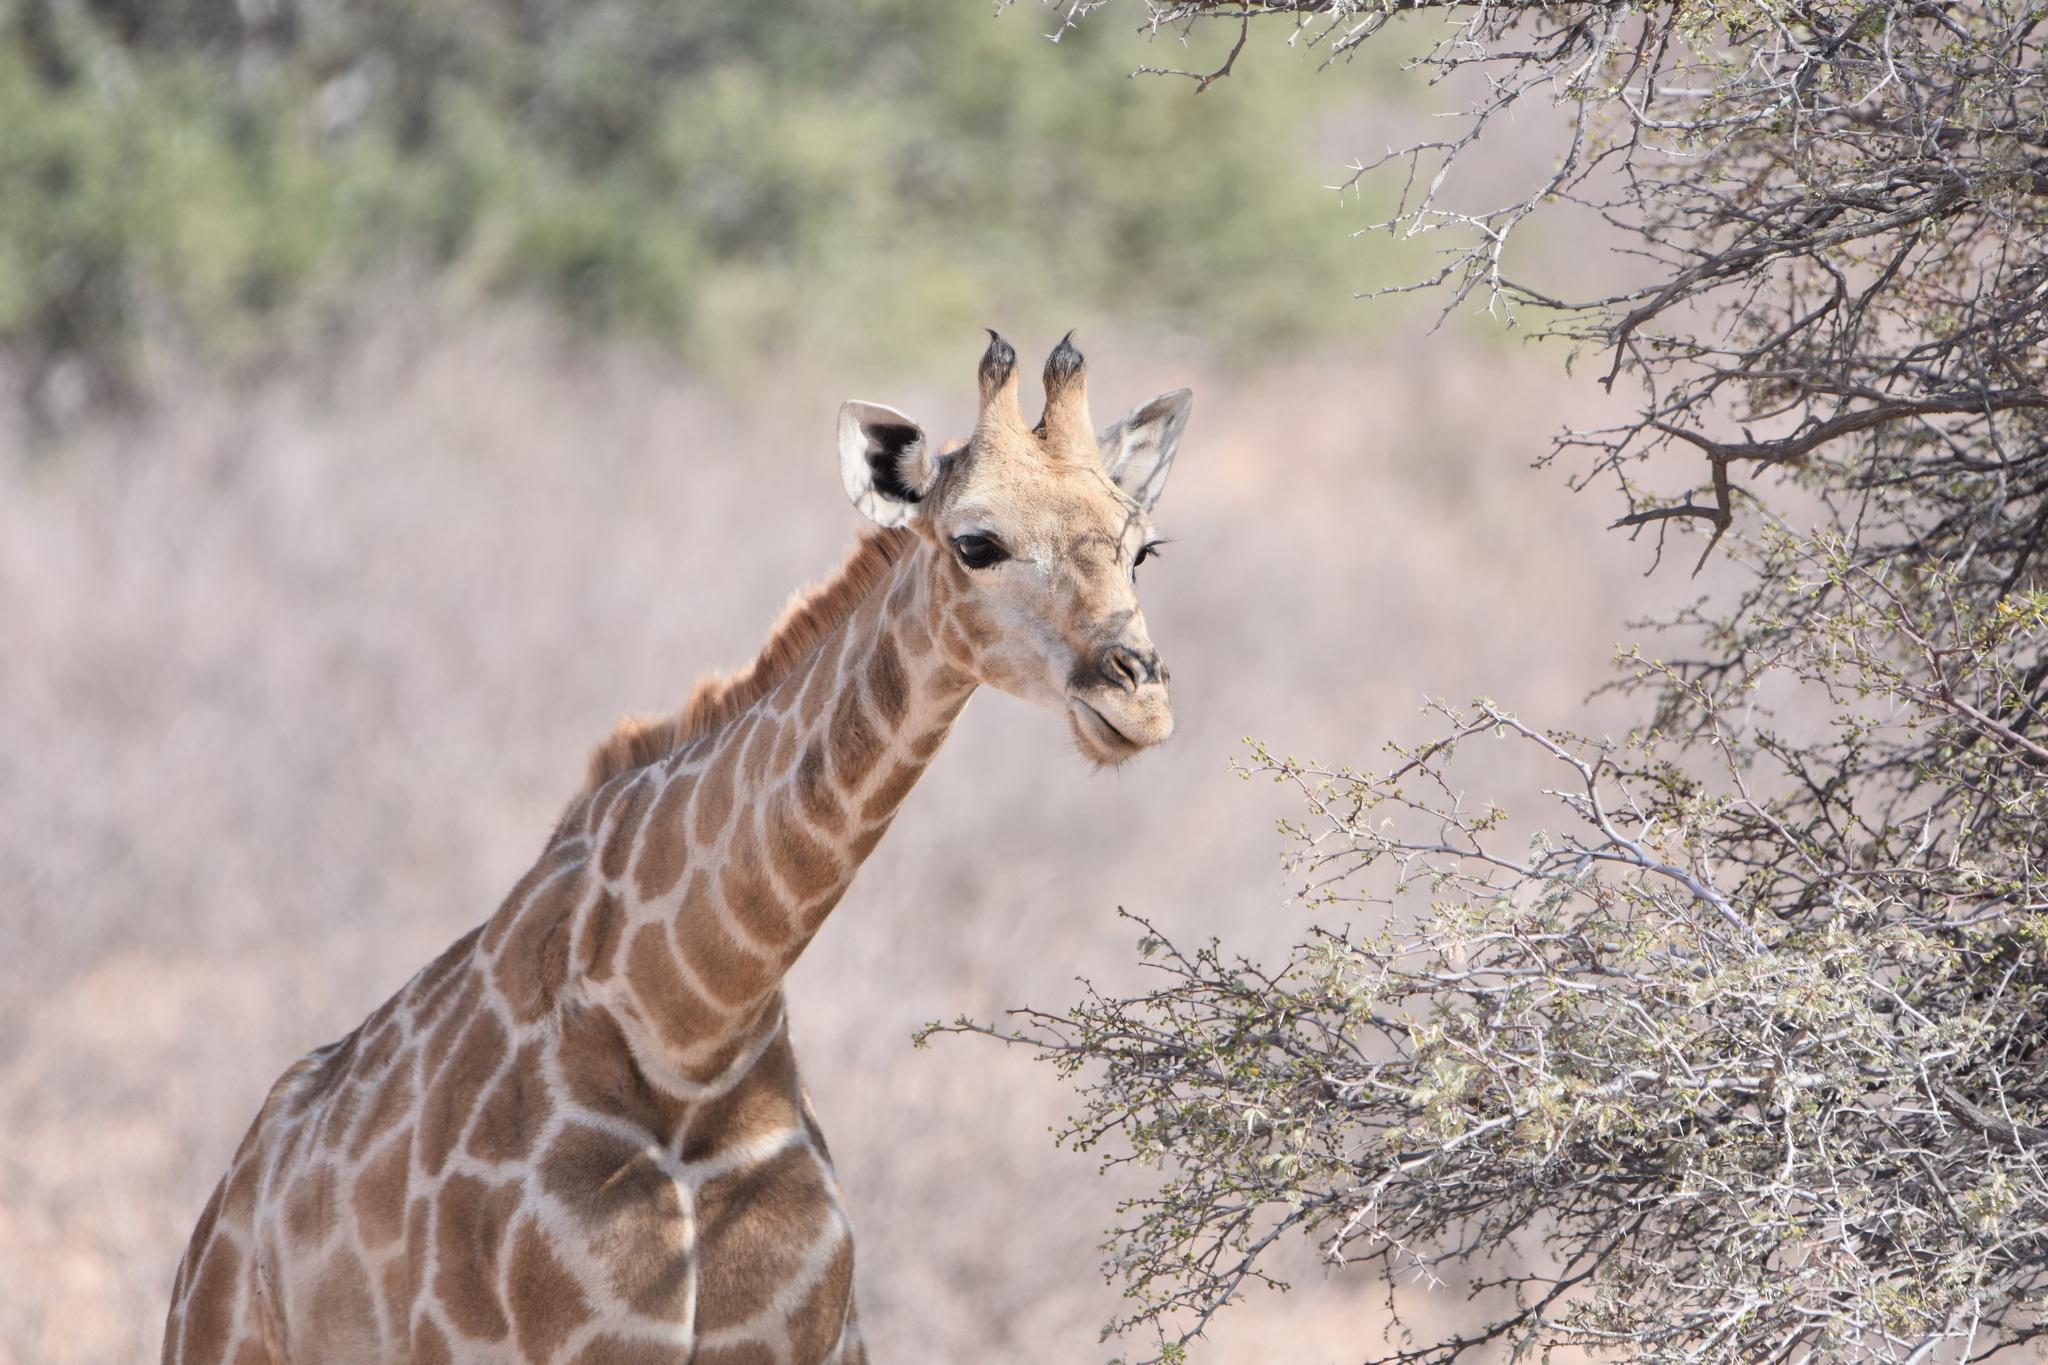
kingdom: Animalia
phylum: Chordata
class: Mammalia
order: Artiodactyla
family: Giraffidae
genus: Giraffa
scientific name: Giraffa giraffa
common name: Southern giraffe
